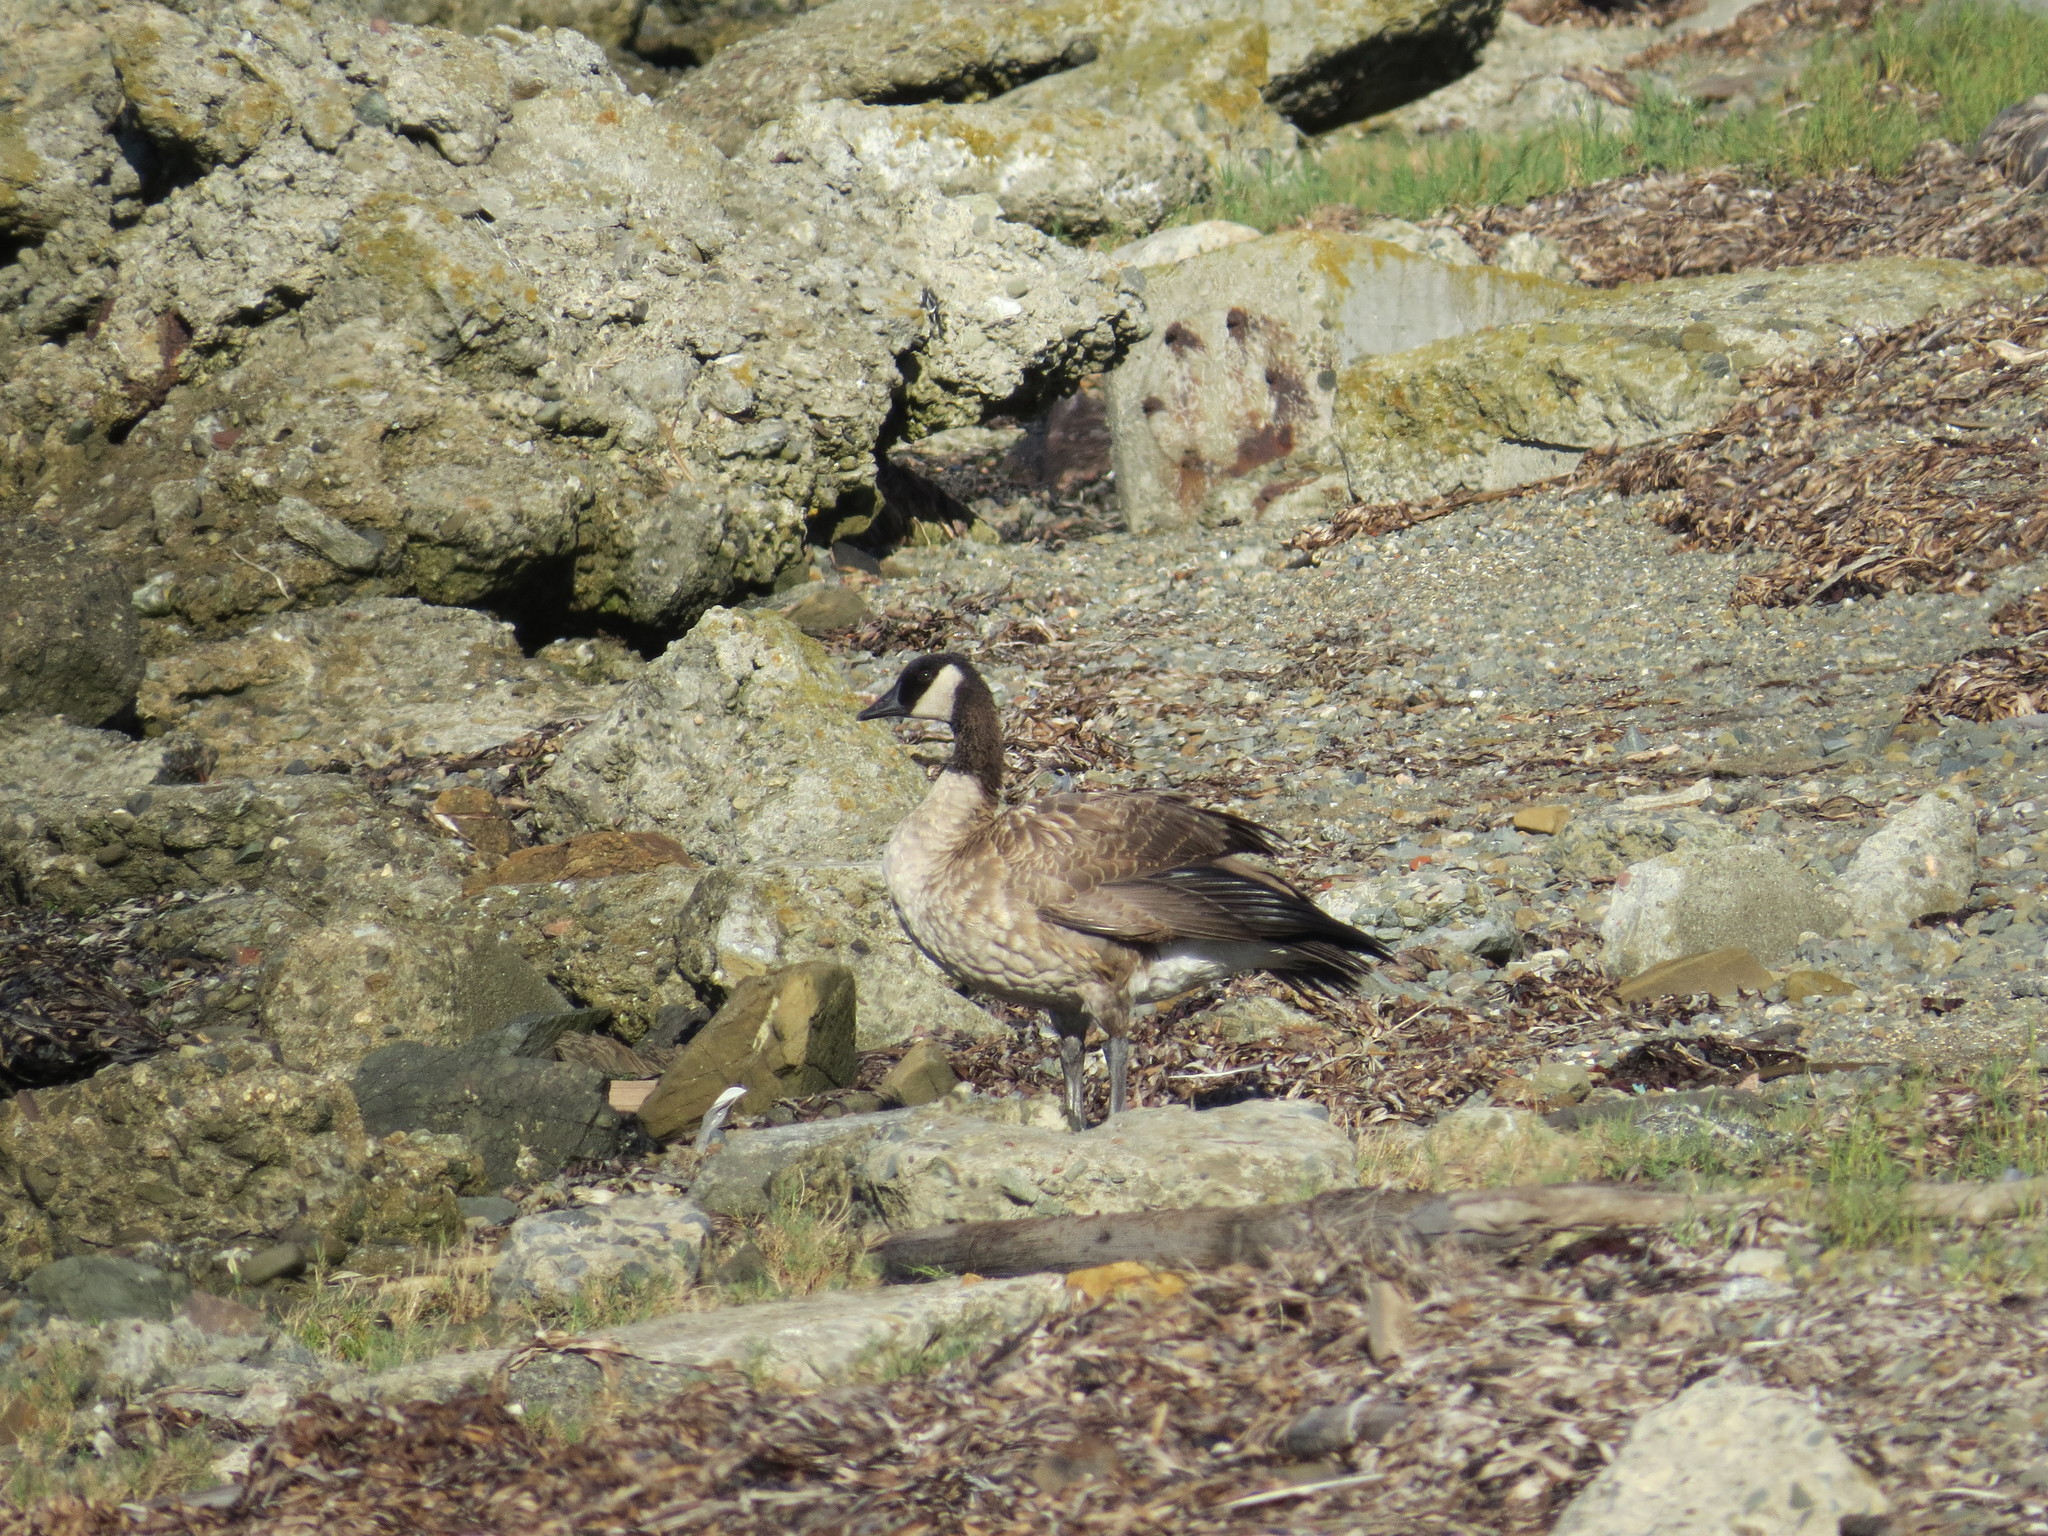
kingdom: Animalia
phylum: Chordata
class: Aves
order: Anseriformes
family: Anatidae
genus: Branta
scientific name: Branta canadensis
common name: Canada goose
